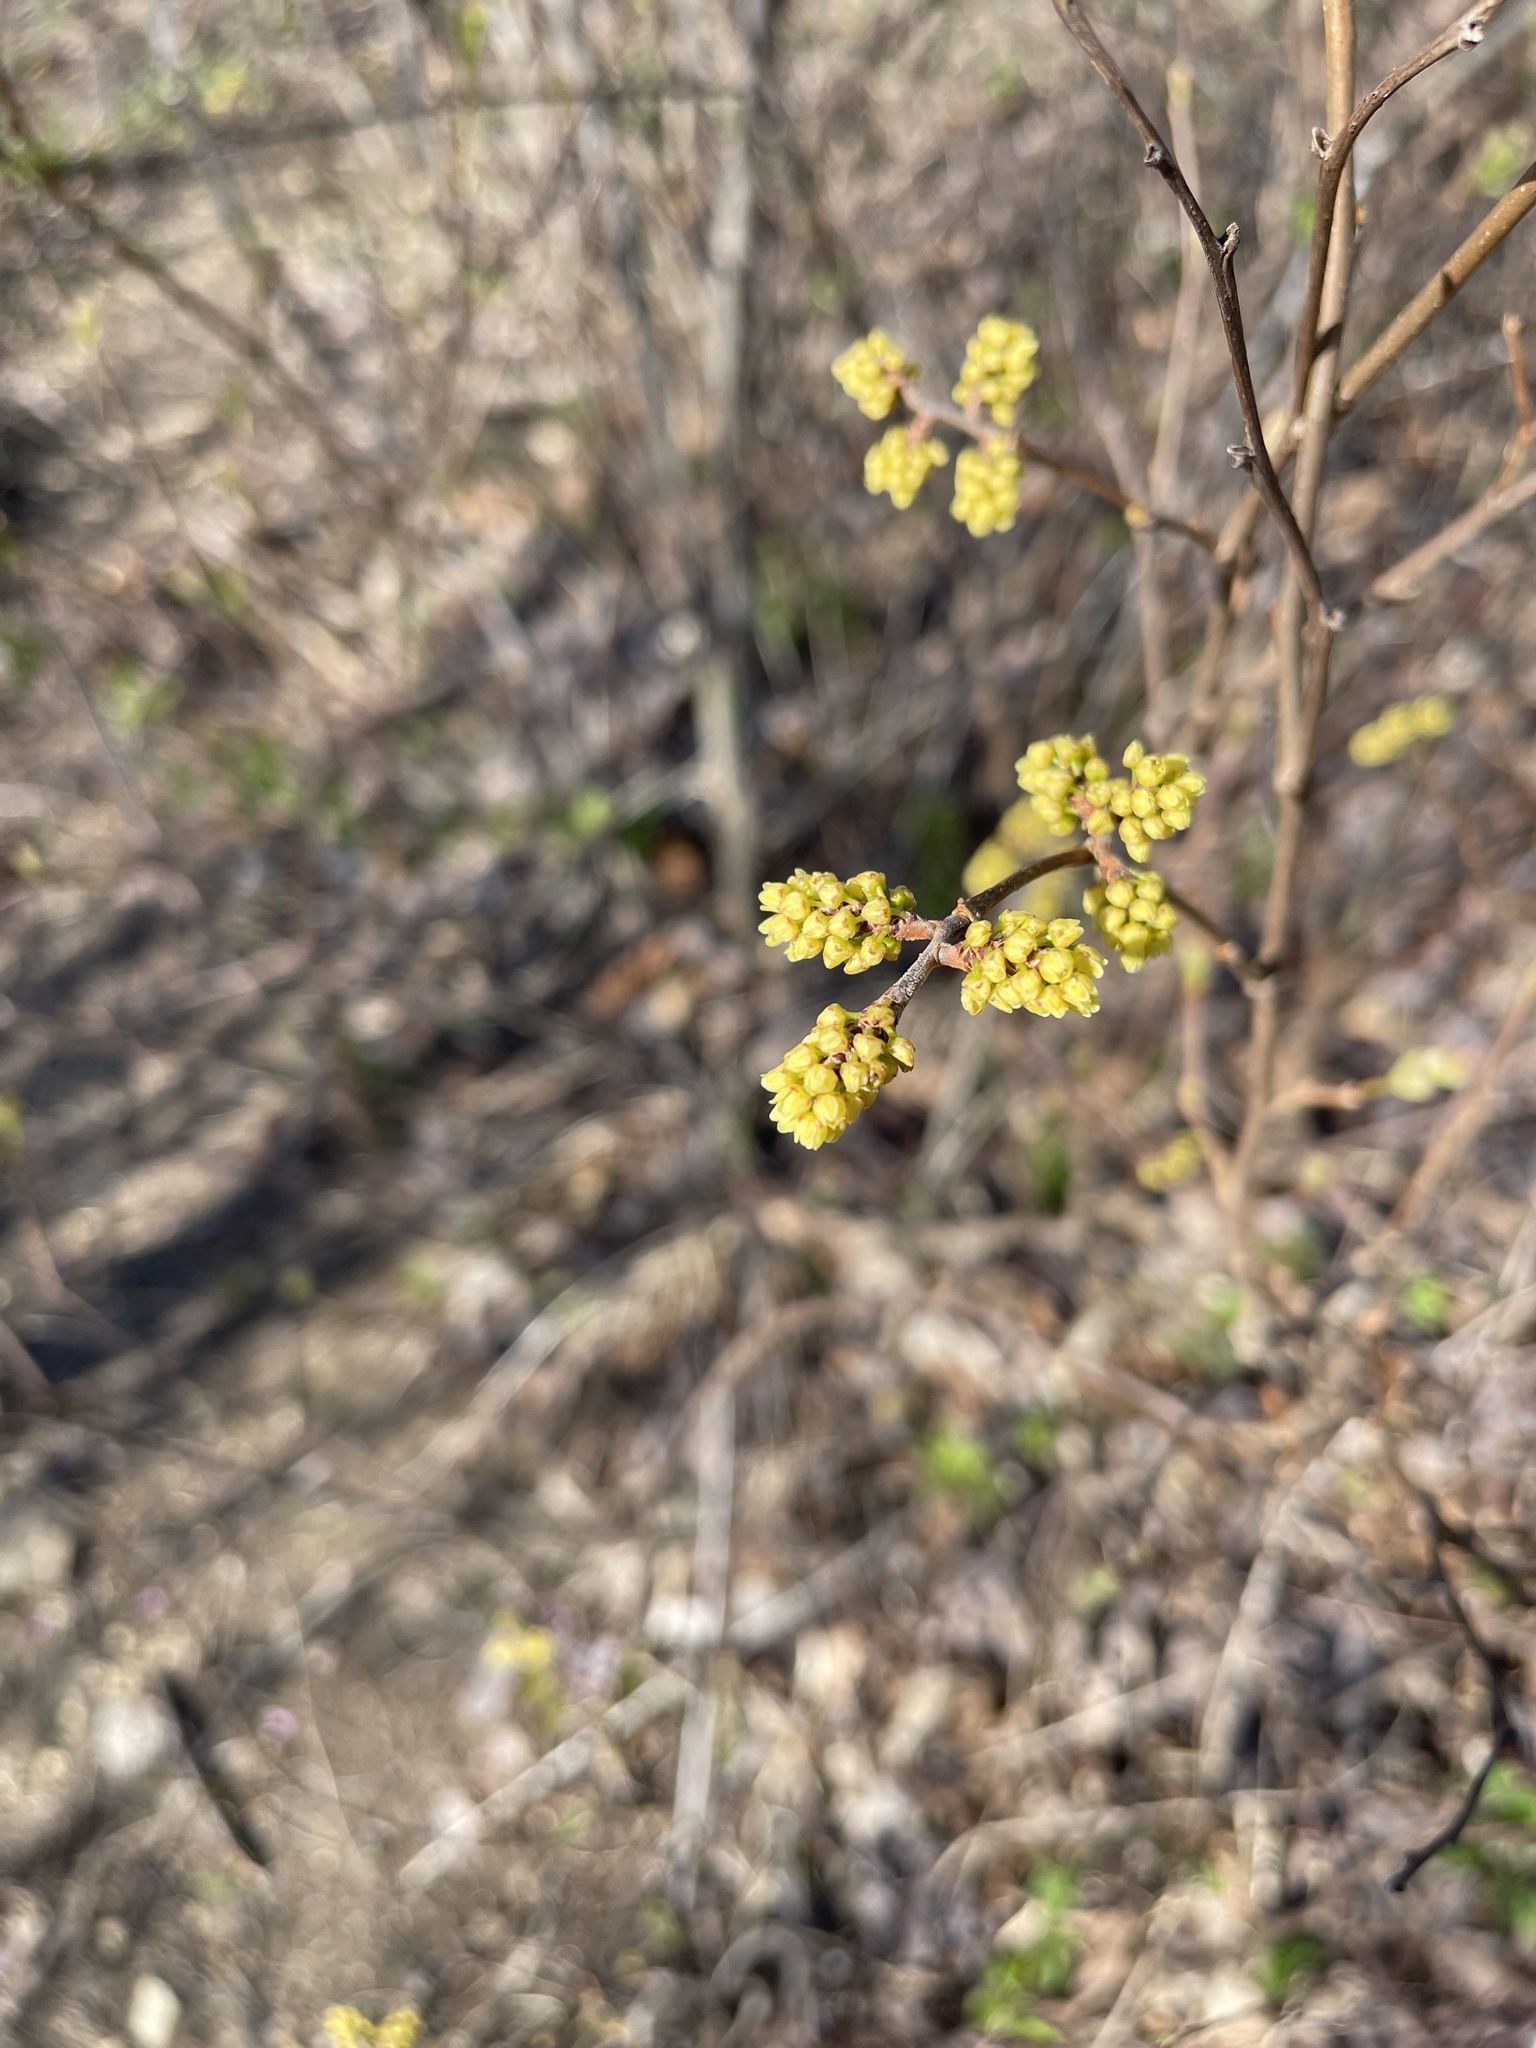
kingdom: Plantae
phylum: Tracheophyta
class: Magnoliopsida
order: Sapindales
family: Anacardiaceae
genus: Rhus
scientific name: Rhus aromatica
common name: Aromatic sumac
